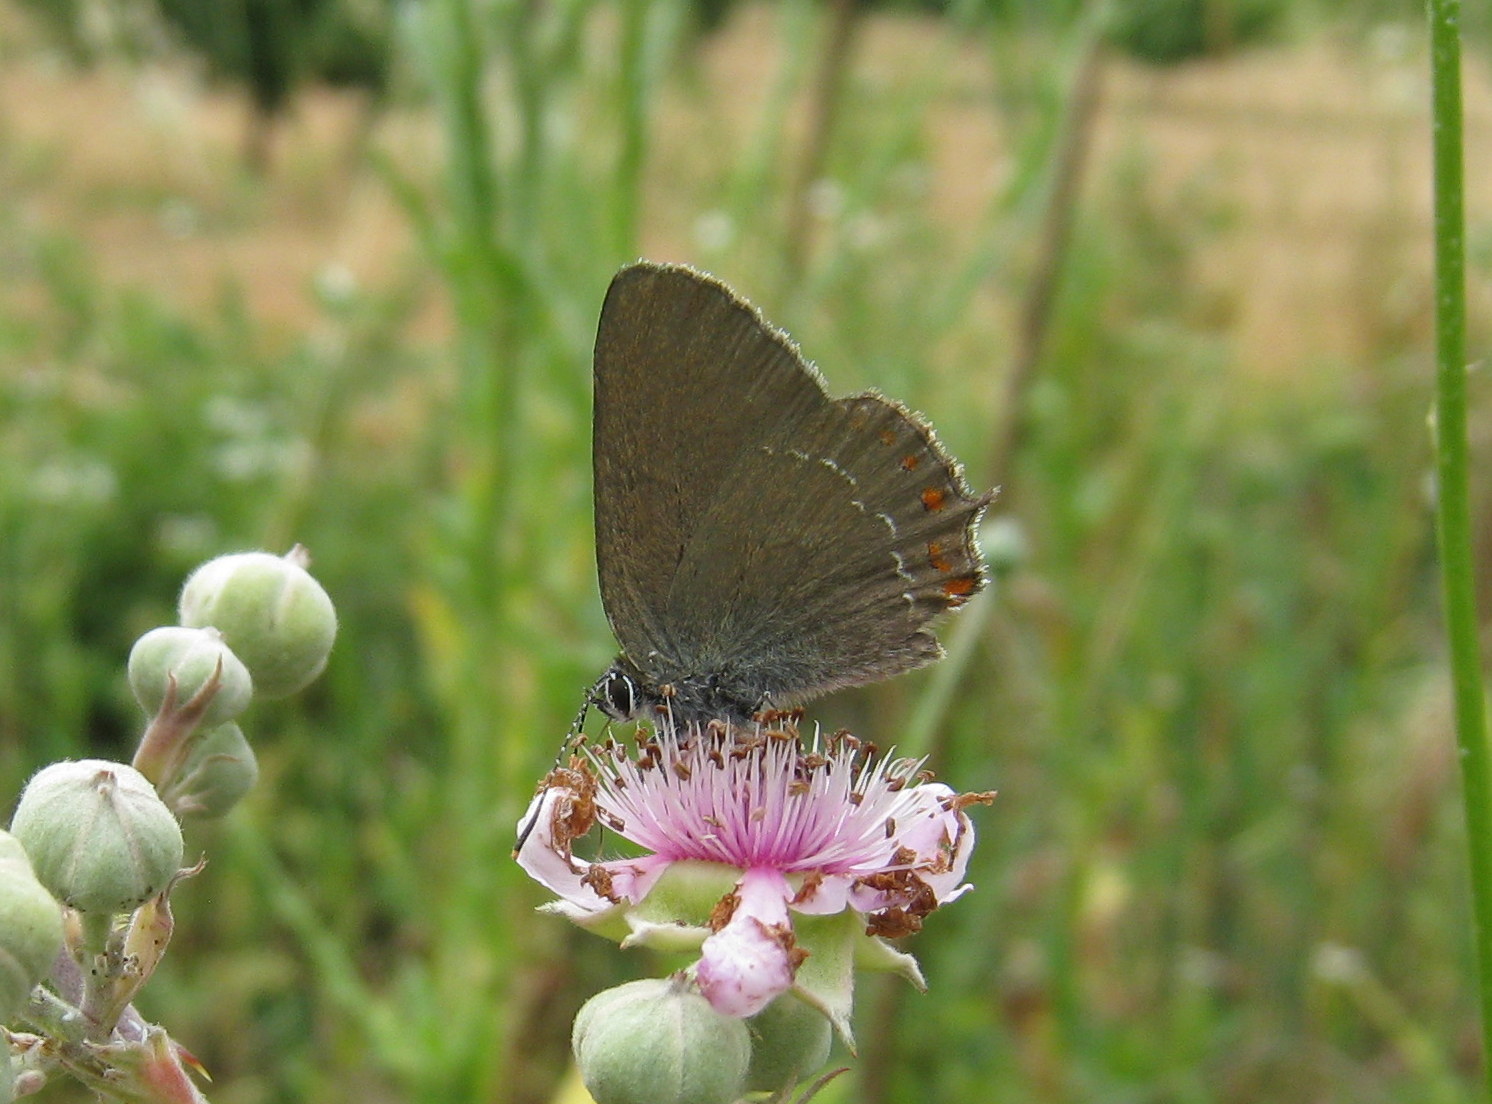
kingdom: Animalia
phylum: Arthropoda
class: Insecta
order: Lepidoptera
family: Lycaenidae
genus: Fixsenia
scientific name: Fixsenia esculi
